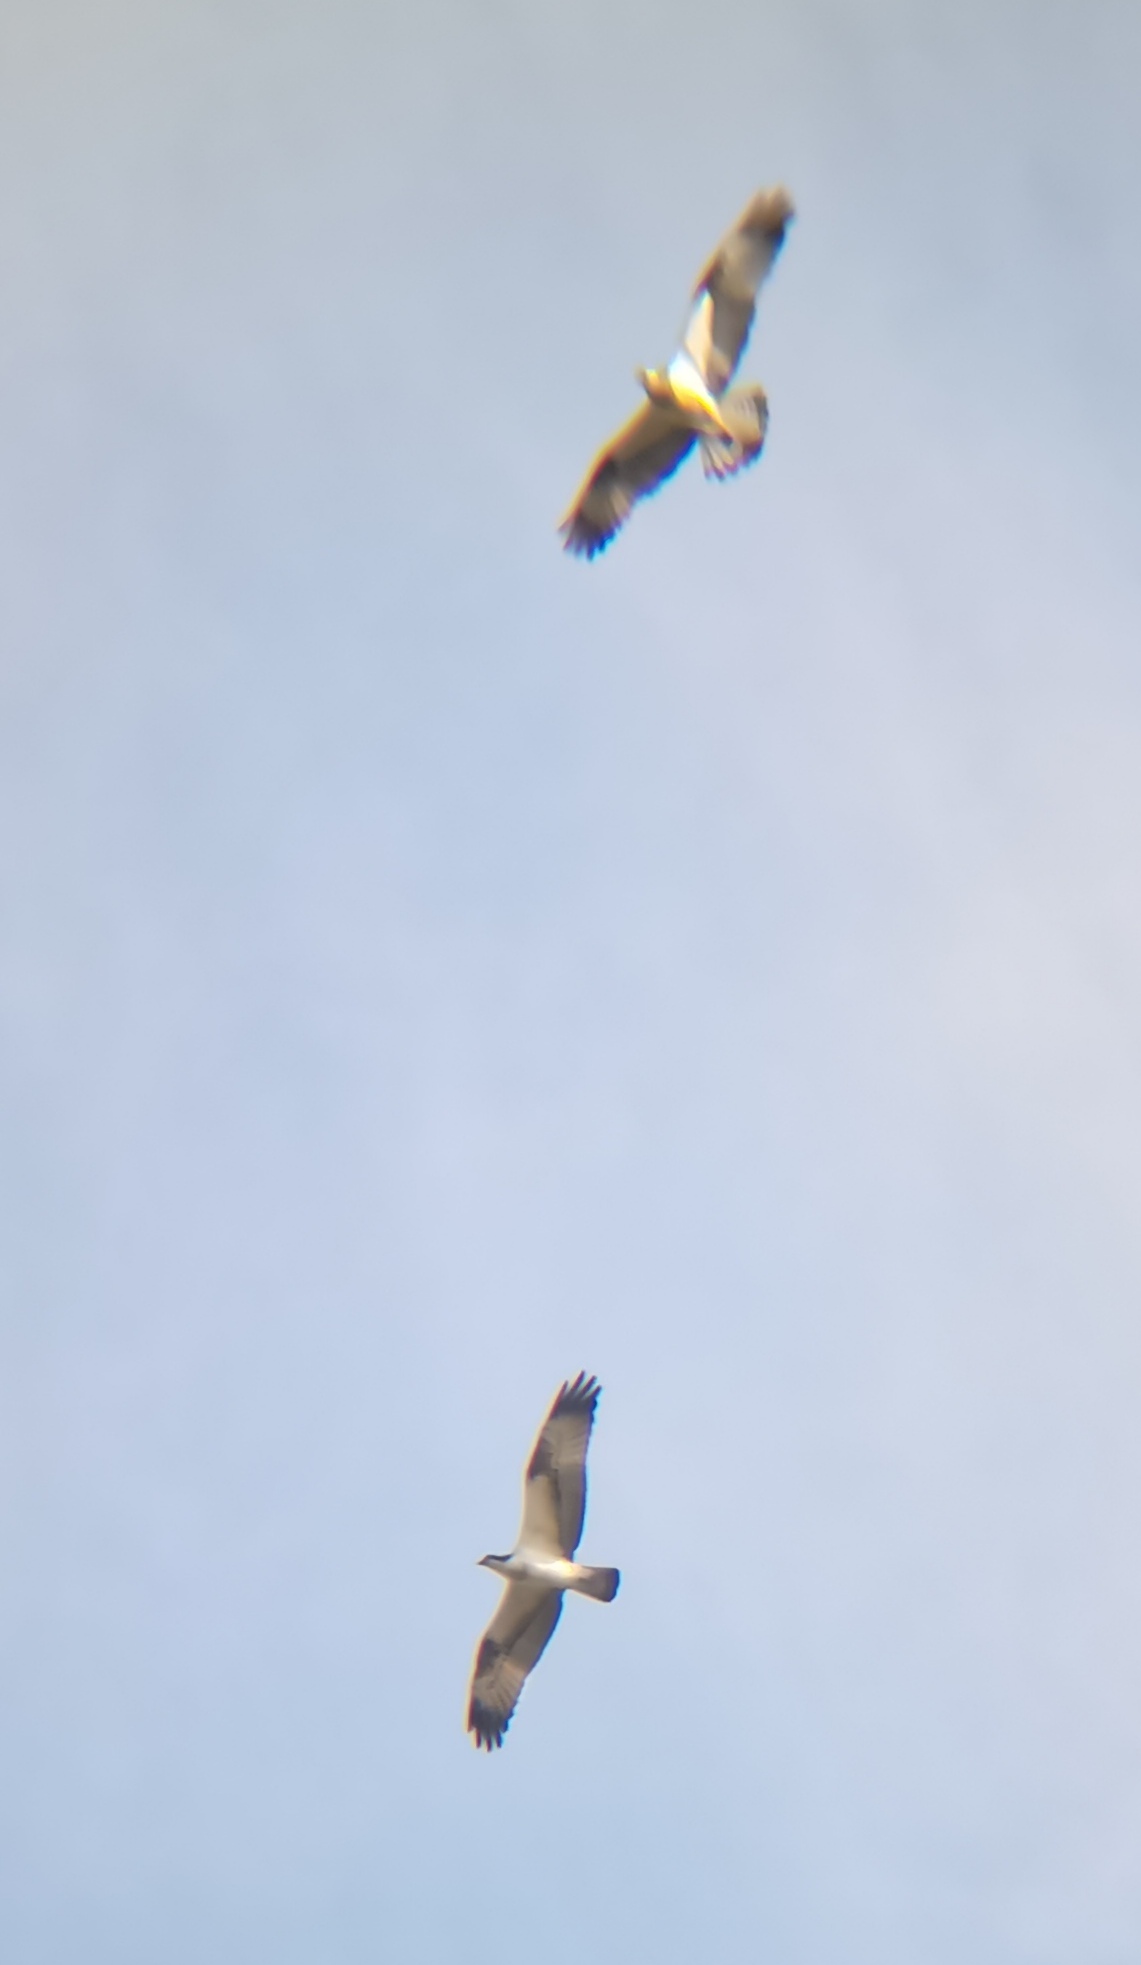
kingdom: Animalia
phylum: Chordata
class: Aves
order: Accipitriformes
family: Pandionidae
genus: Pandion
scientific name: Pandion haliaetus
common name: Osprey
